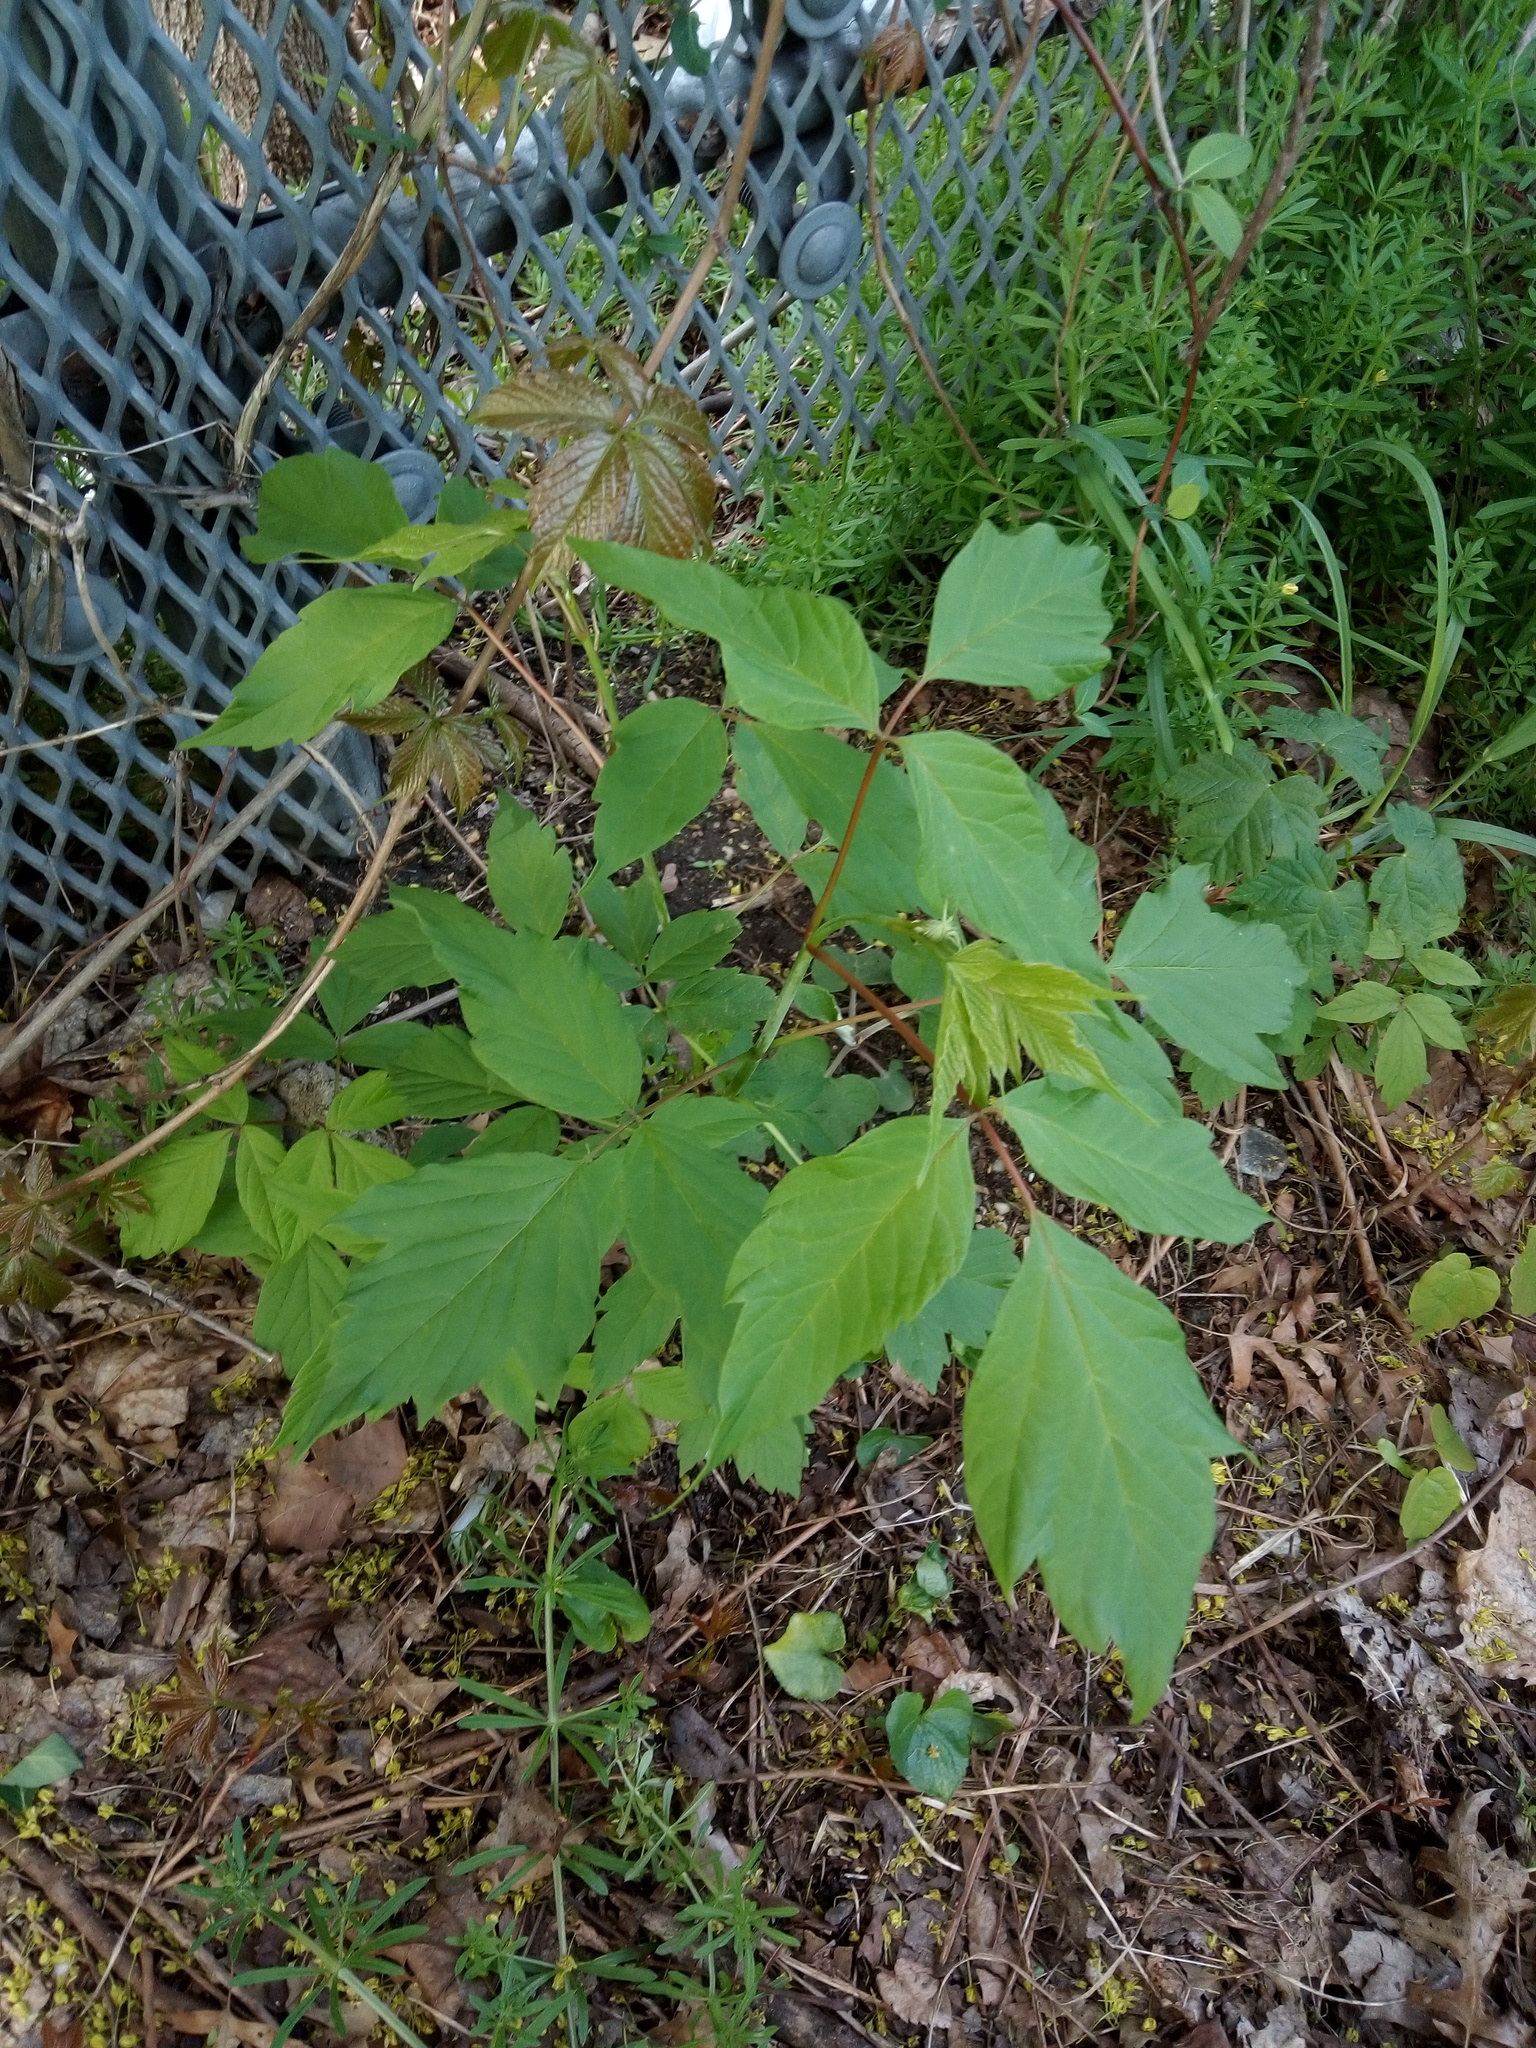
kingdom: Plantae
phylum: Tracheophyta
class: Magnoliopsida
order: Sapindales
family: Sapindaceae
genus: Acer
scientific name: Acer negundo
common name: Ashleaf maple
